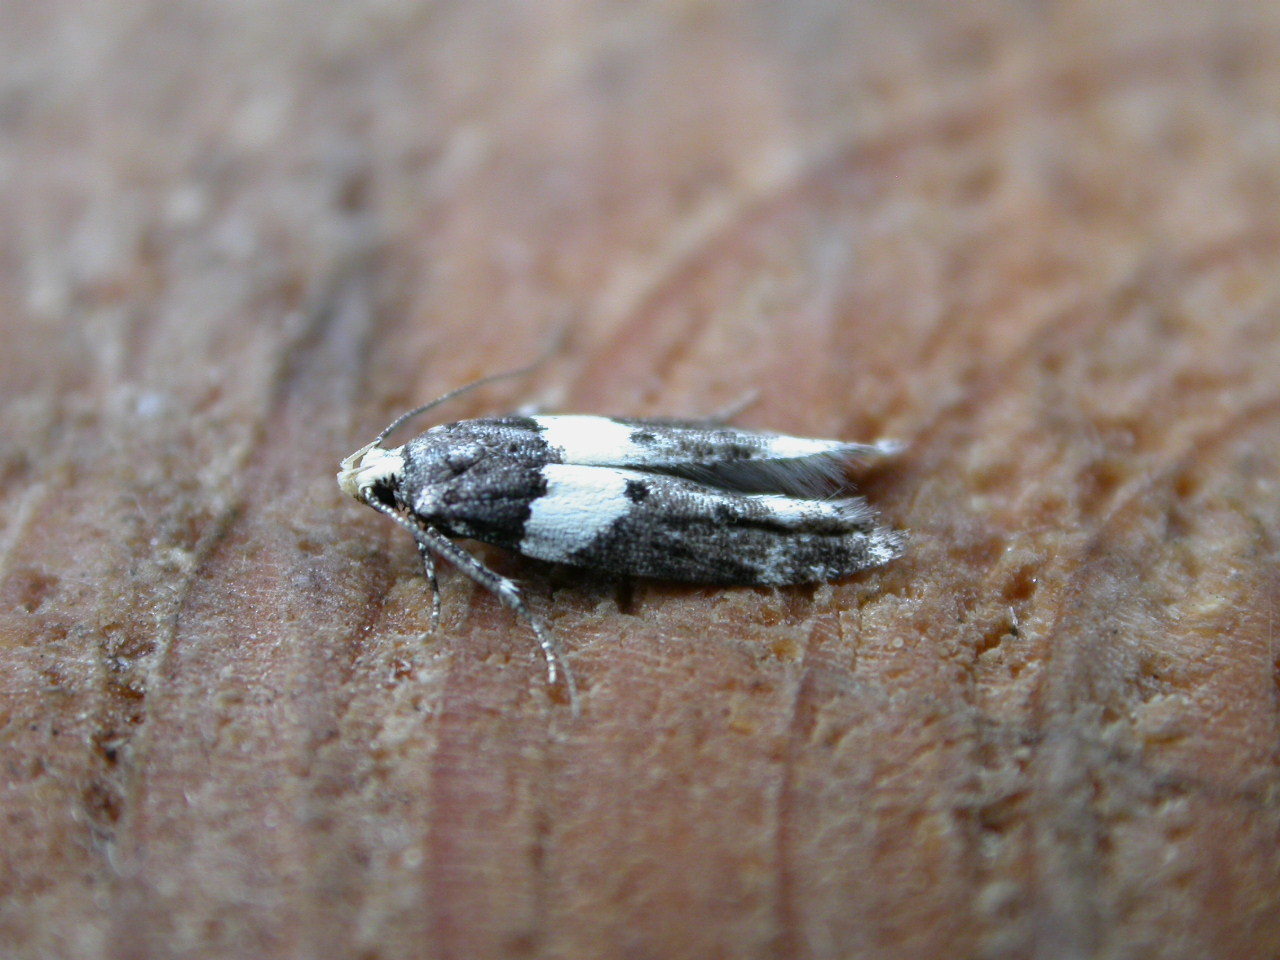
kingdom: Animalia
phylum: Arthropoda
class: Insecta
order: Lepidoptera
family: Gelechiidae
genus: Recurvaria
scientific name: Recurvaria leucatella
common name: White-barred groundling
